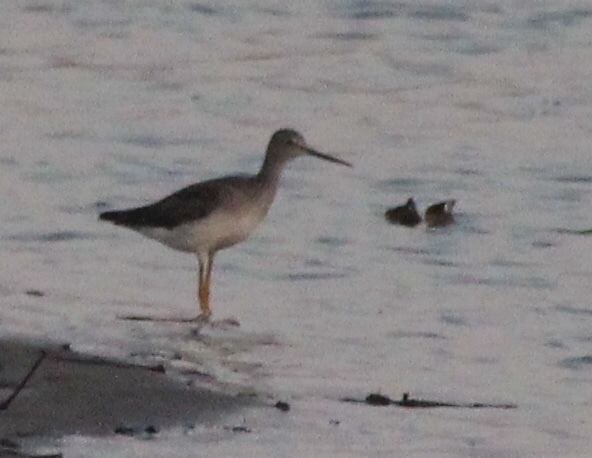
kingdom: Animalia
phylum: Chordata
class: Aves
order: Charadriiformes
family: Scolopacidae
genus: Tringa
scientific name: Tringa melanoleuca
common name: Greater yellowlegs
